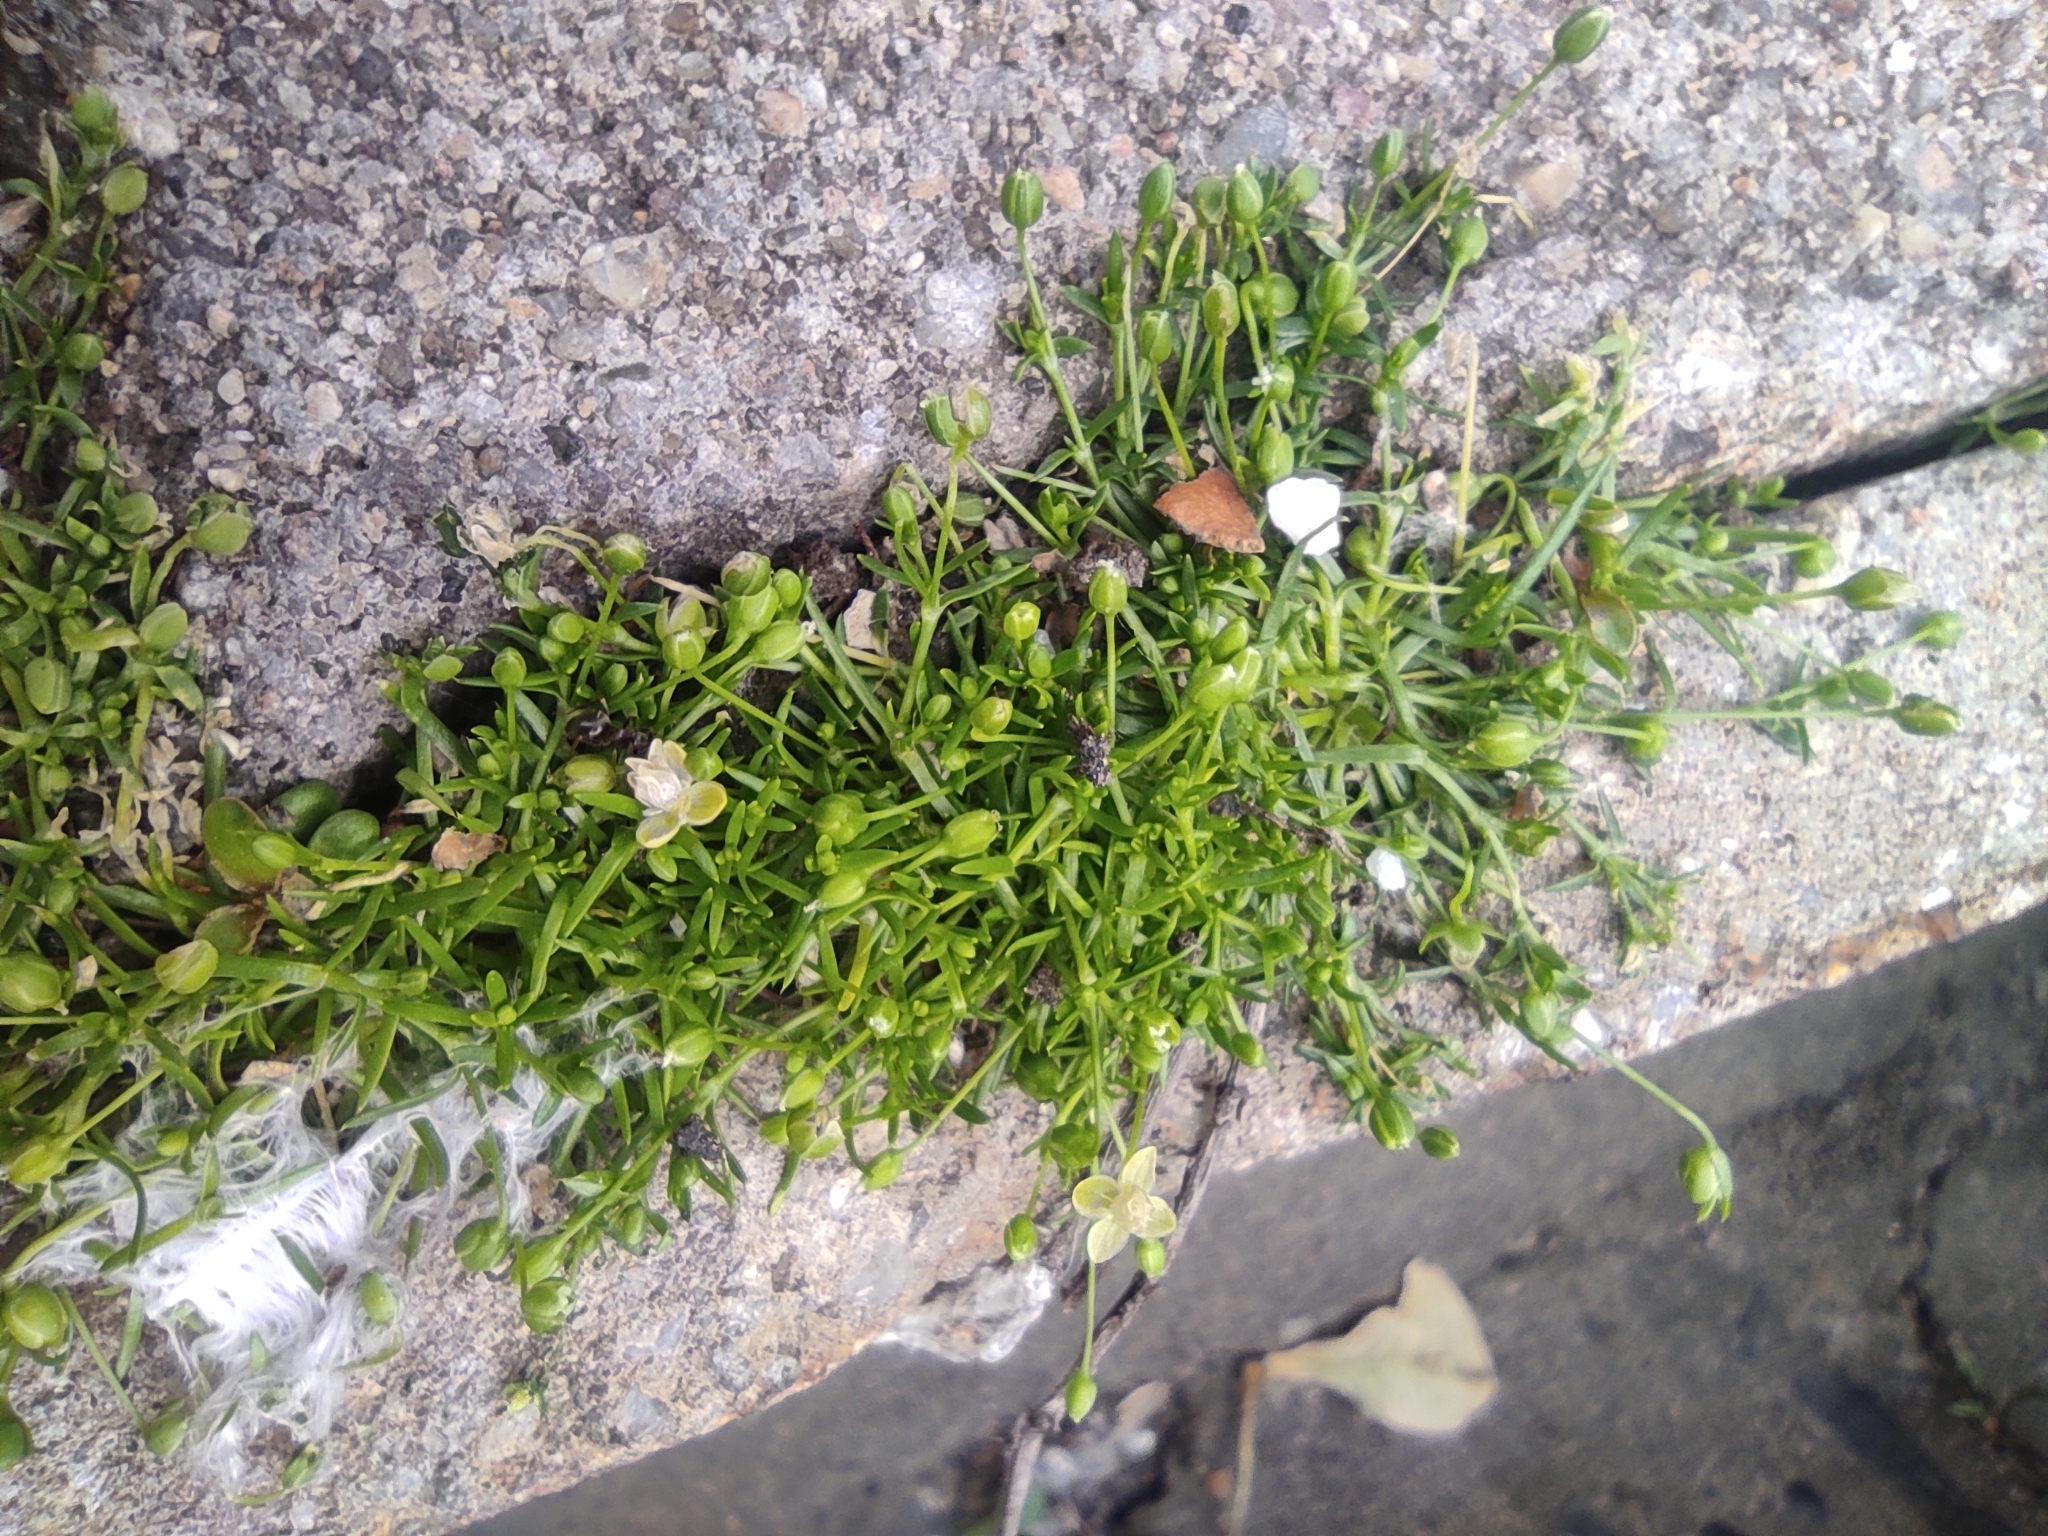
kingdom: Plantae
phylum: Tracheophyta
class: Magnoliopsida
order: Caryophyllales
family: Caryophyllaceae
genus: Sagina
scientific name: Sagina procumbens
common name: Procumbent pearlwort
